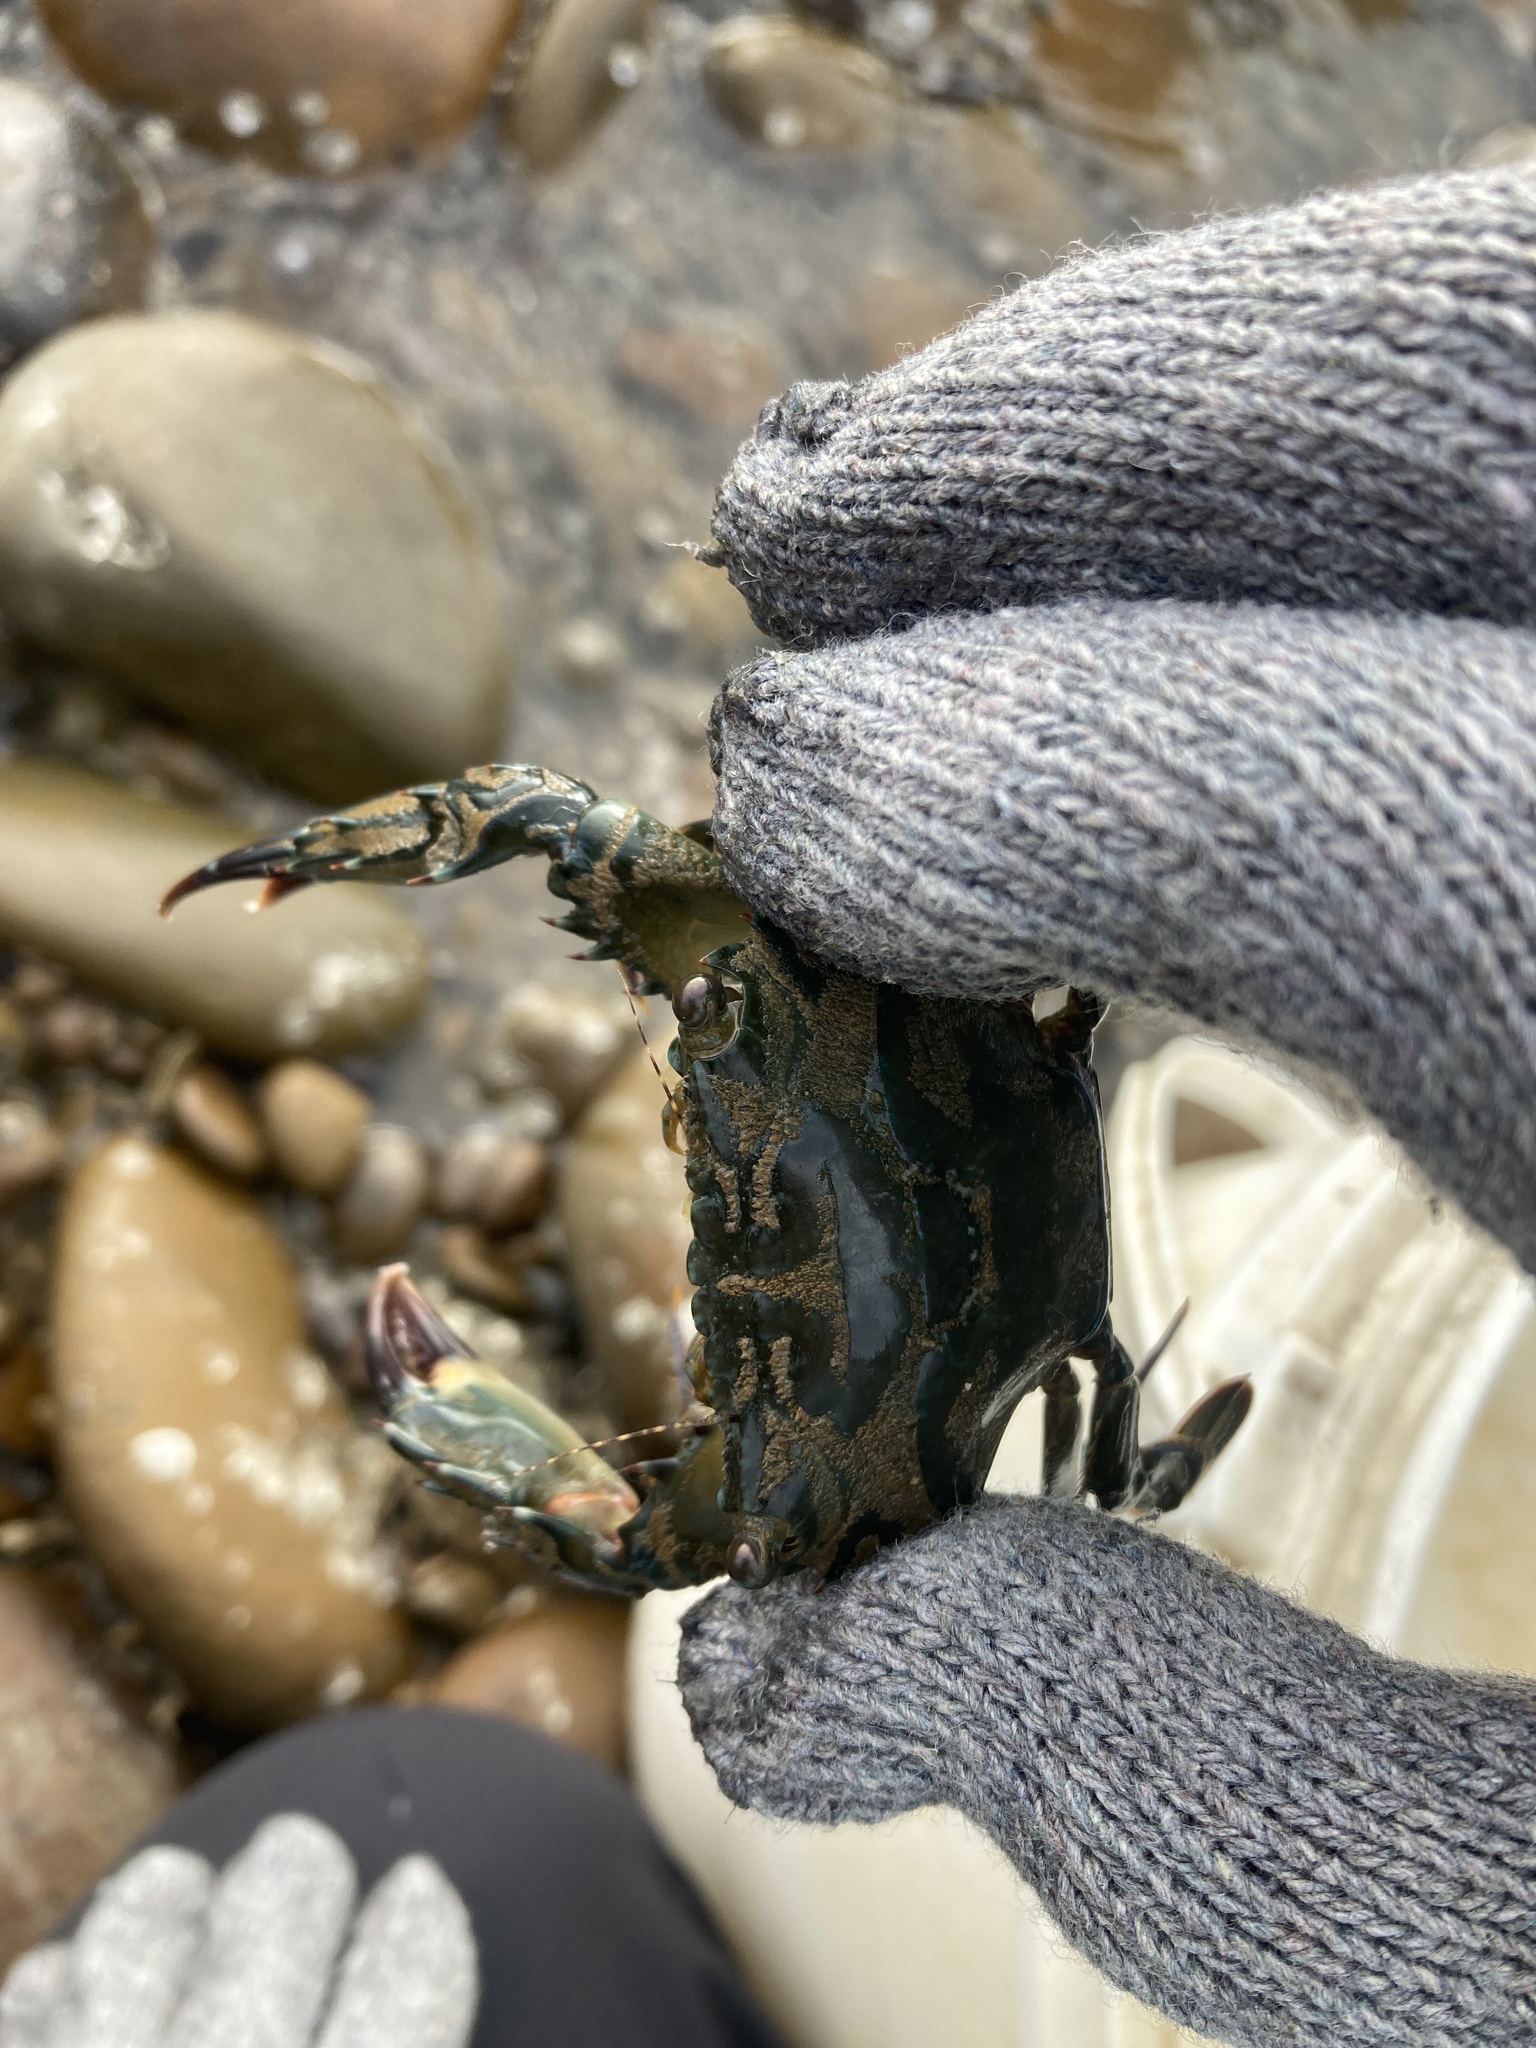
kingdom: Animalia
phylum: Arthropoda
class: Malacostraca
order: Decapoda
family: Portunidae
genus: Thalamita
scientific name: Thalamita crenata
